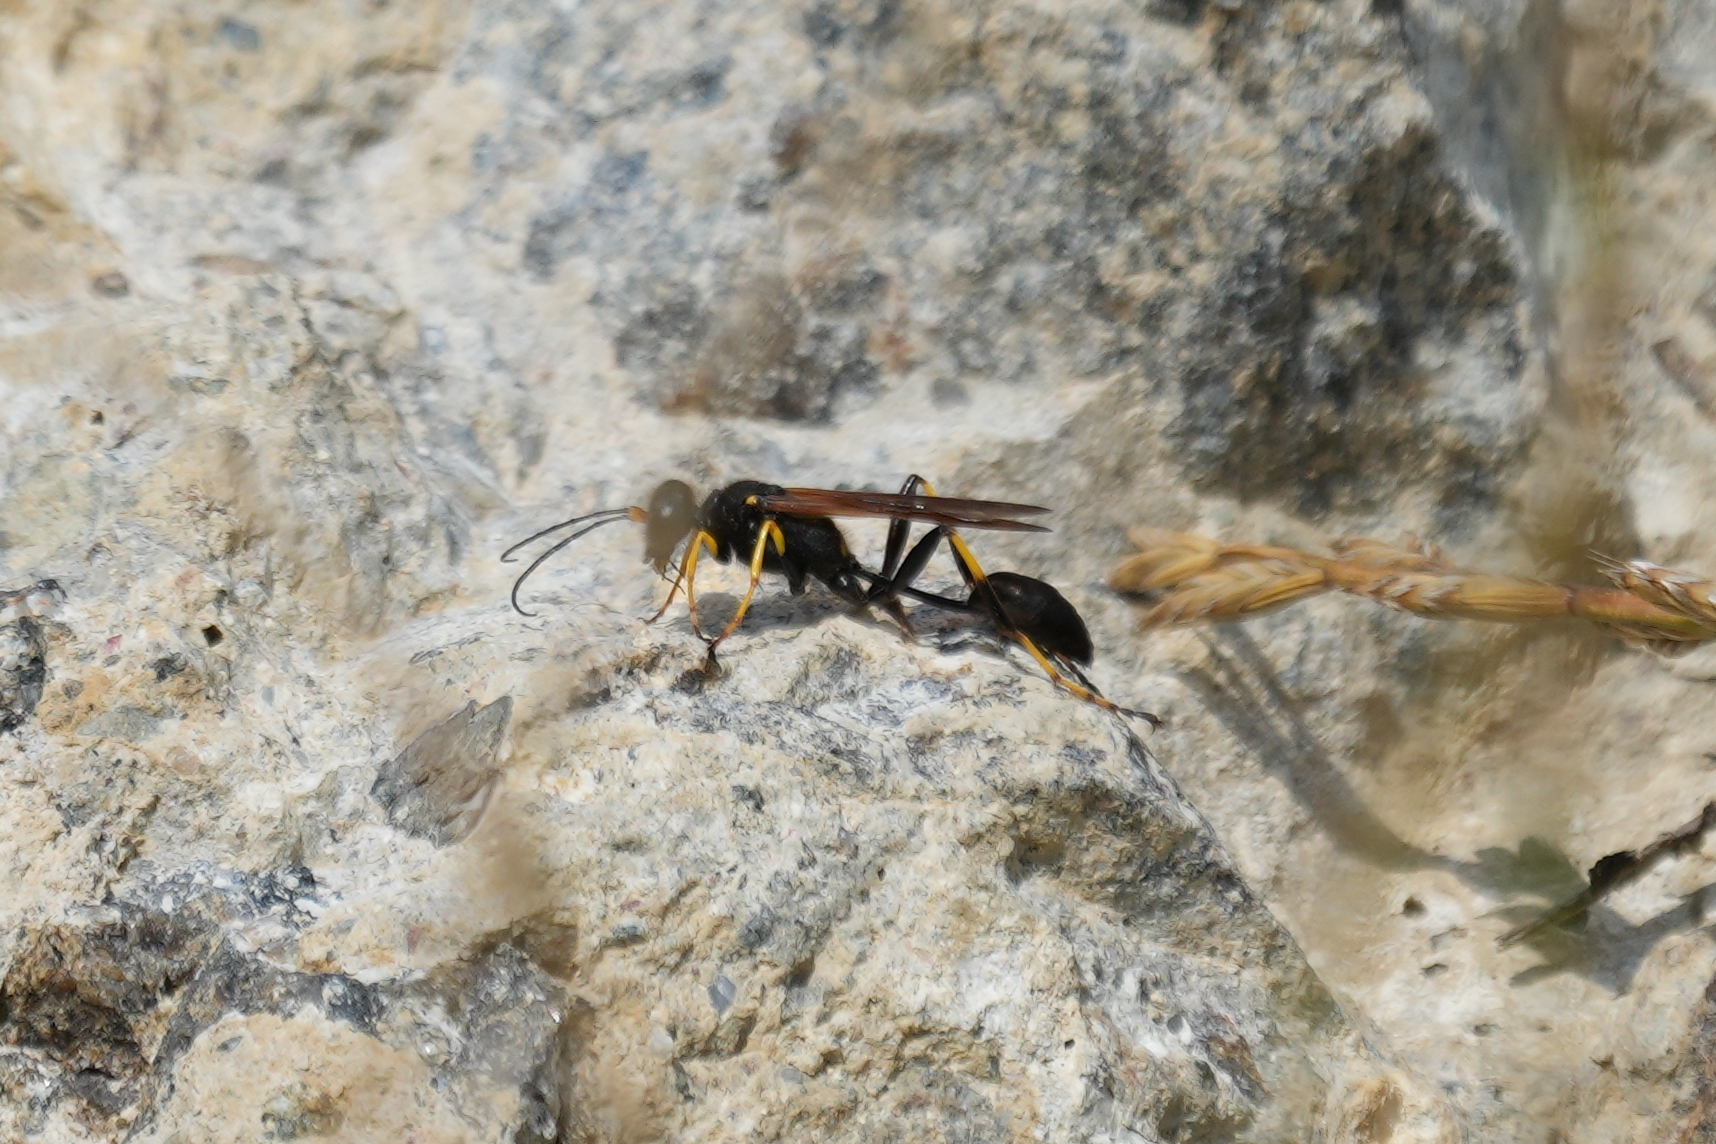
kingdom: Animalia
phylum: Arthropoda
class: Insecta
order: Hymenoptera
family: Sphecidae
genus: Sceliphron
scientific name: Sceliphron caementarium
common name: Mud dauber
